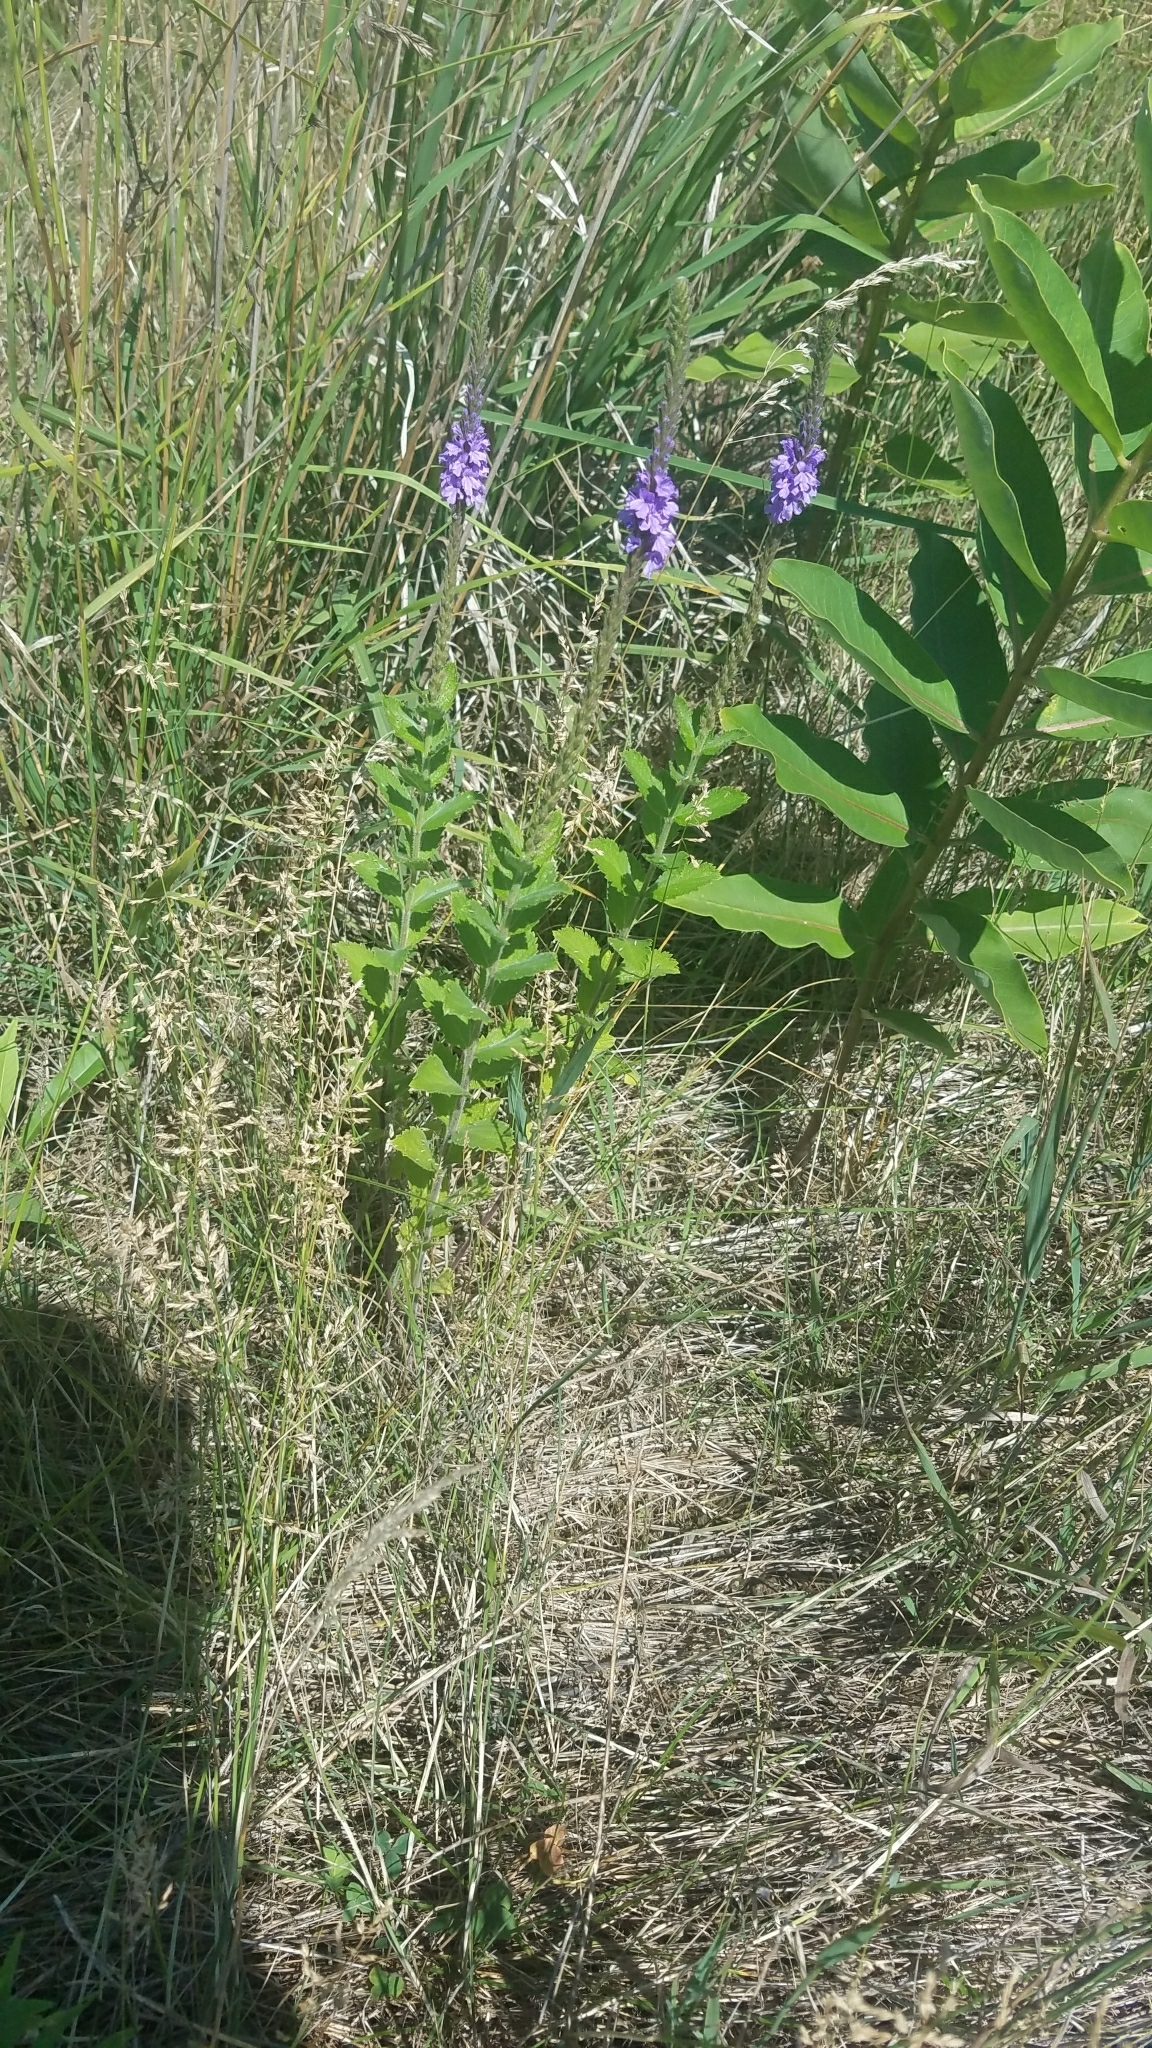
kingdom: Plantae
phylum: Tracheophyta
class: Magnoliopsida
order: Lamiales
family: Verbenaceae
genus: Verbena
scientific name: Verbena stricta
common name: Hoary vervain
